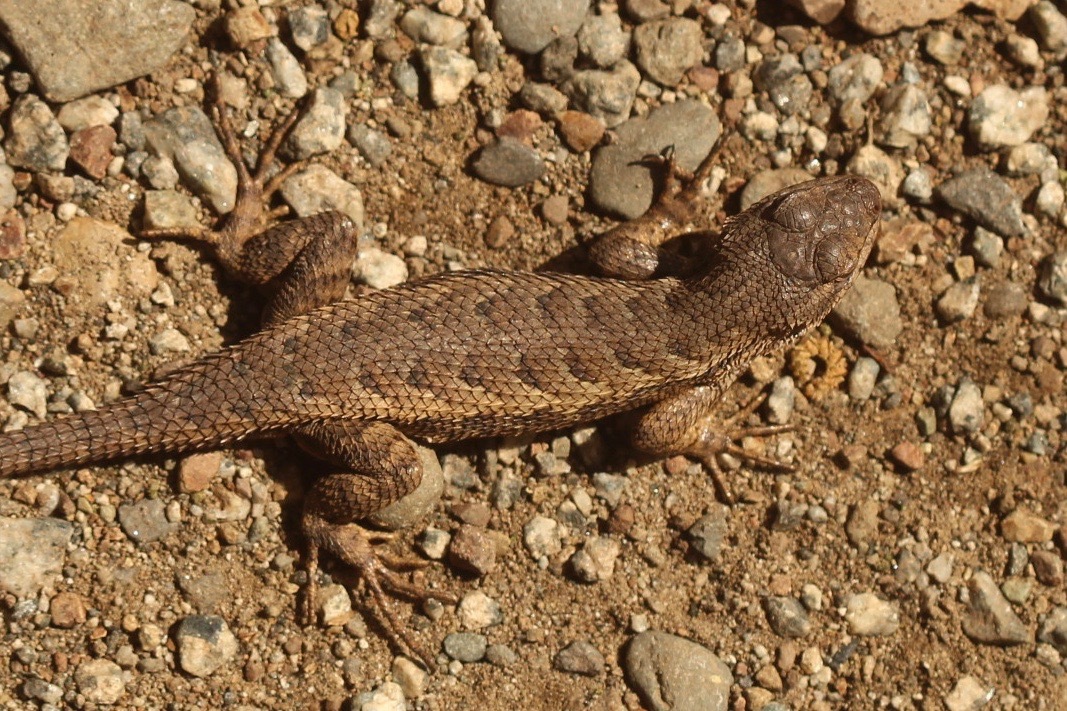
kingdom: Animalia
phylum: Chordata
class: Squamata
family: Phrynosomatidae
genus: Sceloporus
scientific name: Sceloporus occidentalis
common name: Western fence lizard
